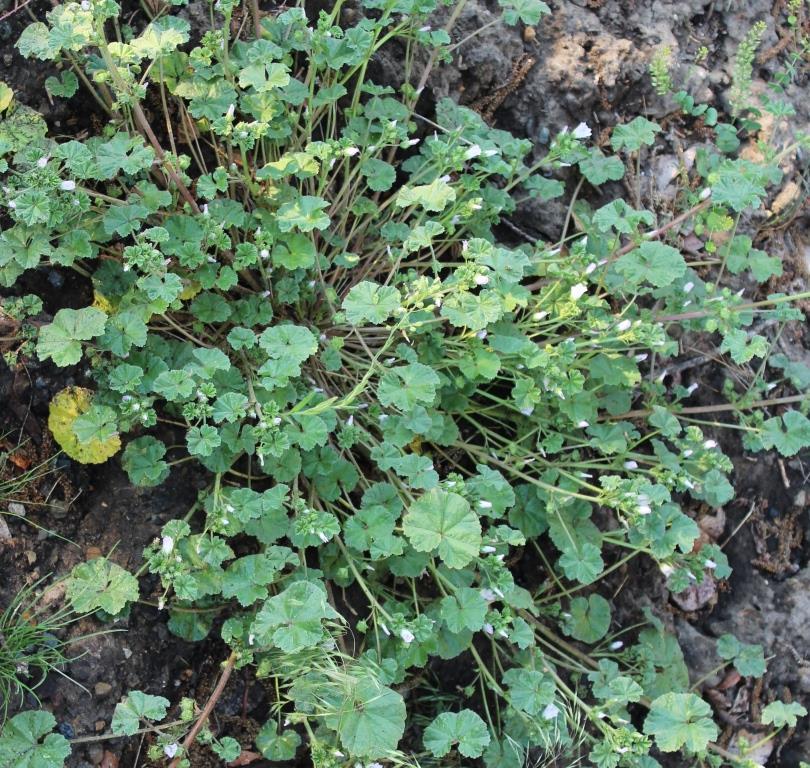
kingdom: Plantae
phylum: Tracheophyta
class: Magnoliopsida
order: Malvales
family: Malvaceae
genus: Malva
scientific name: Malva neglecta
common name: Common mallow
